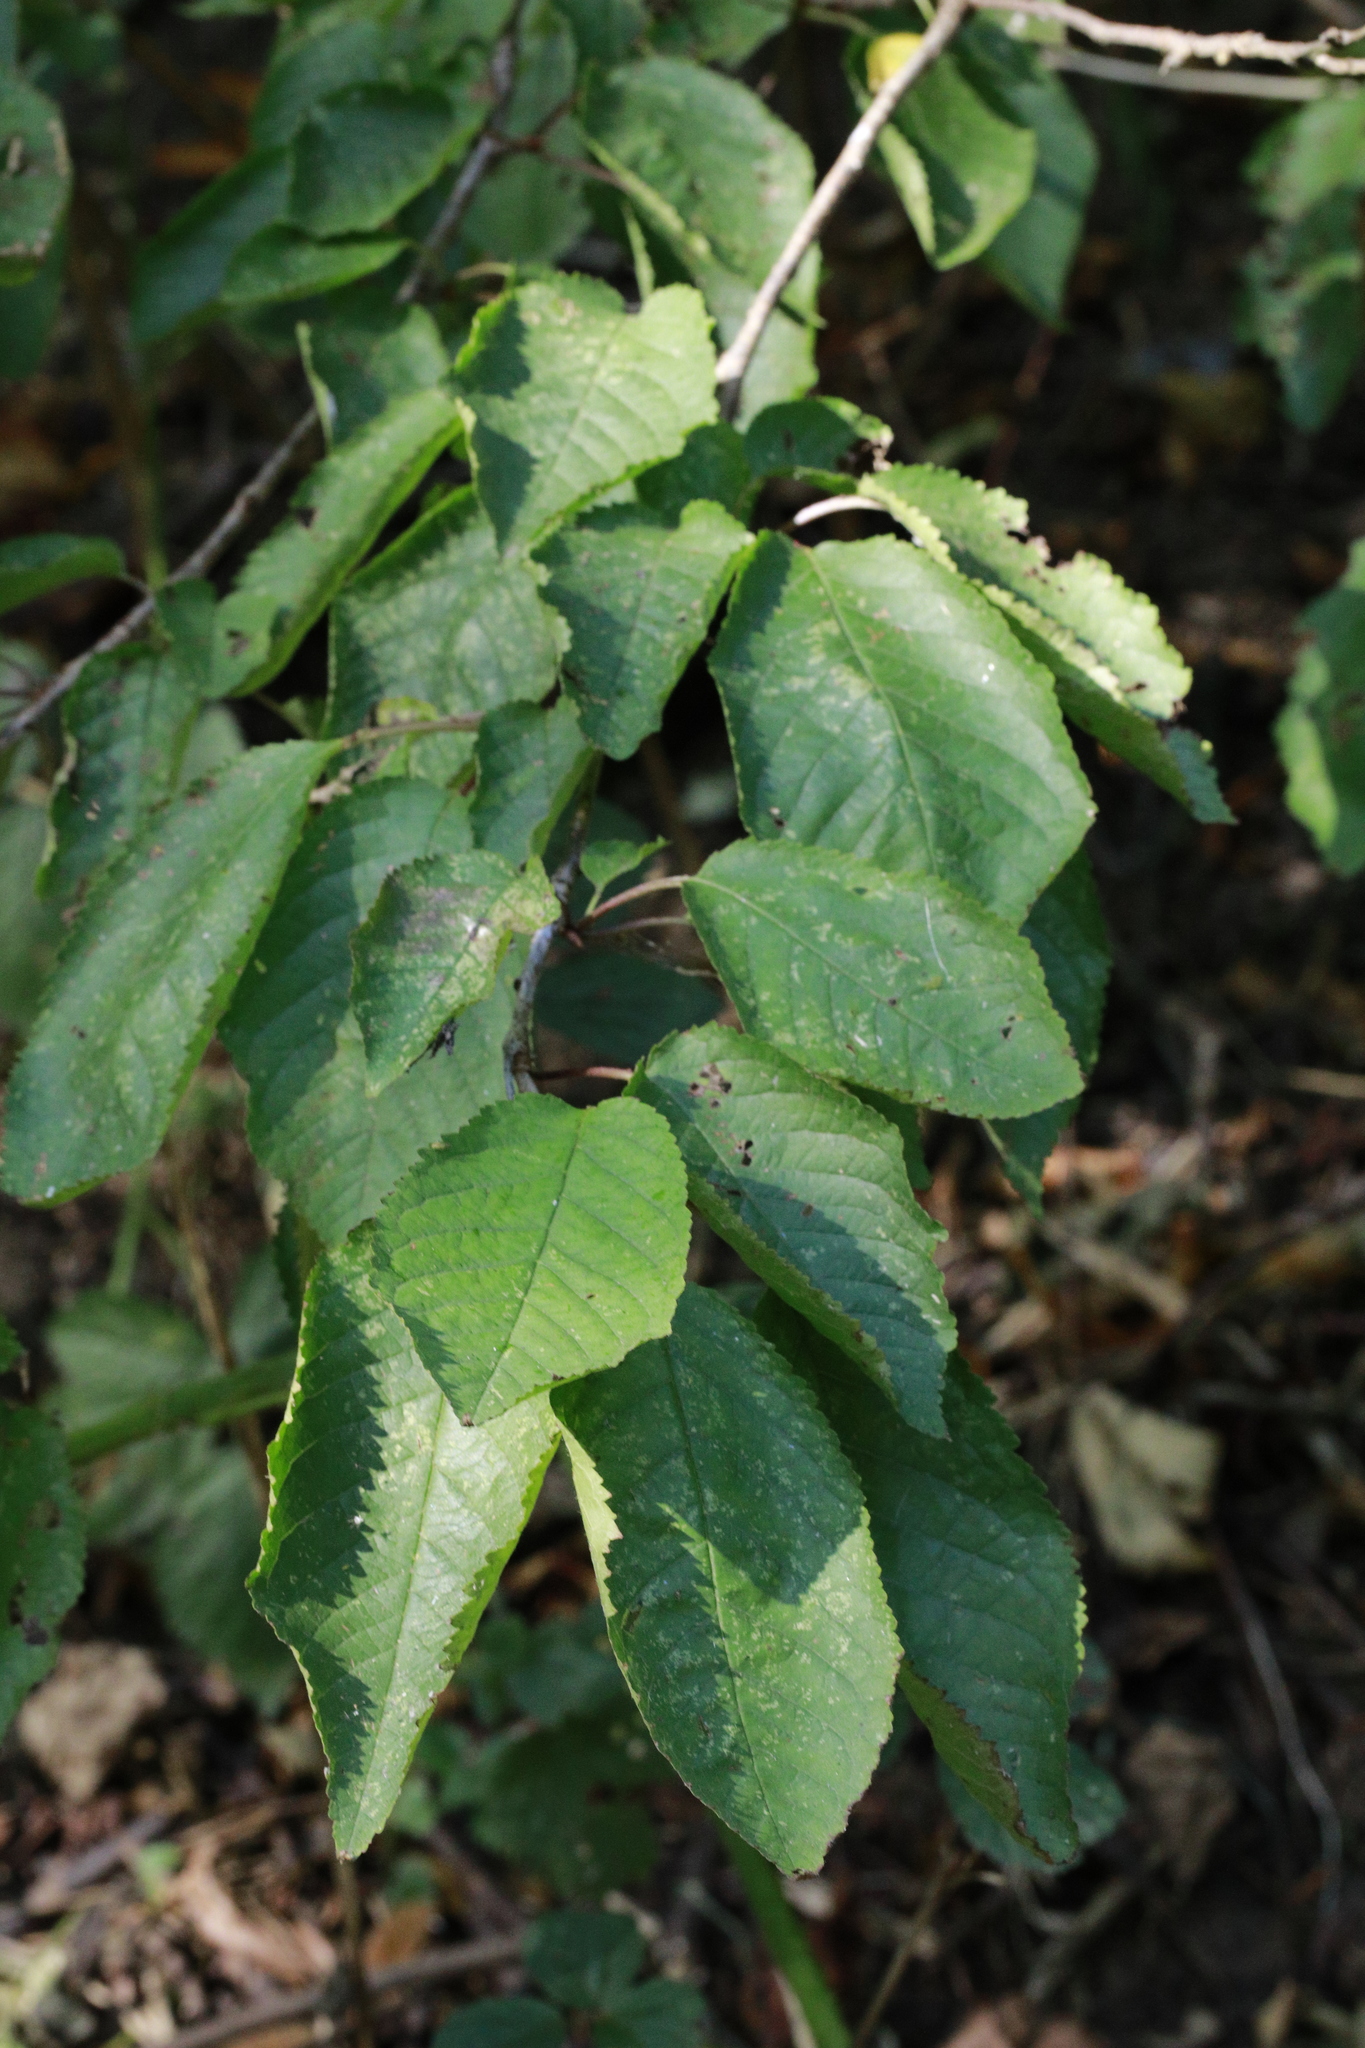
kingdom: Plantae
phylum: Tracheophyta
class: Magnoliopsida
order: Rosales
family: Rosaceae
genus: Prunus
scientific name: Prunus avium
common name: Sweet cherry
